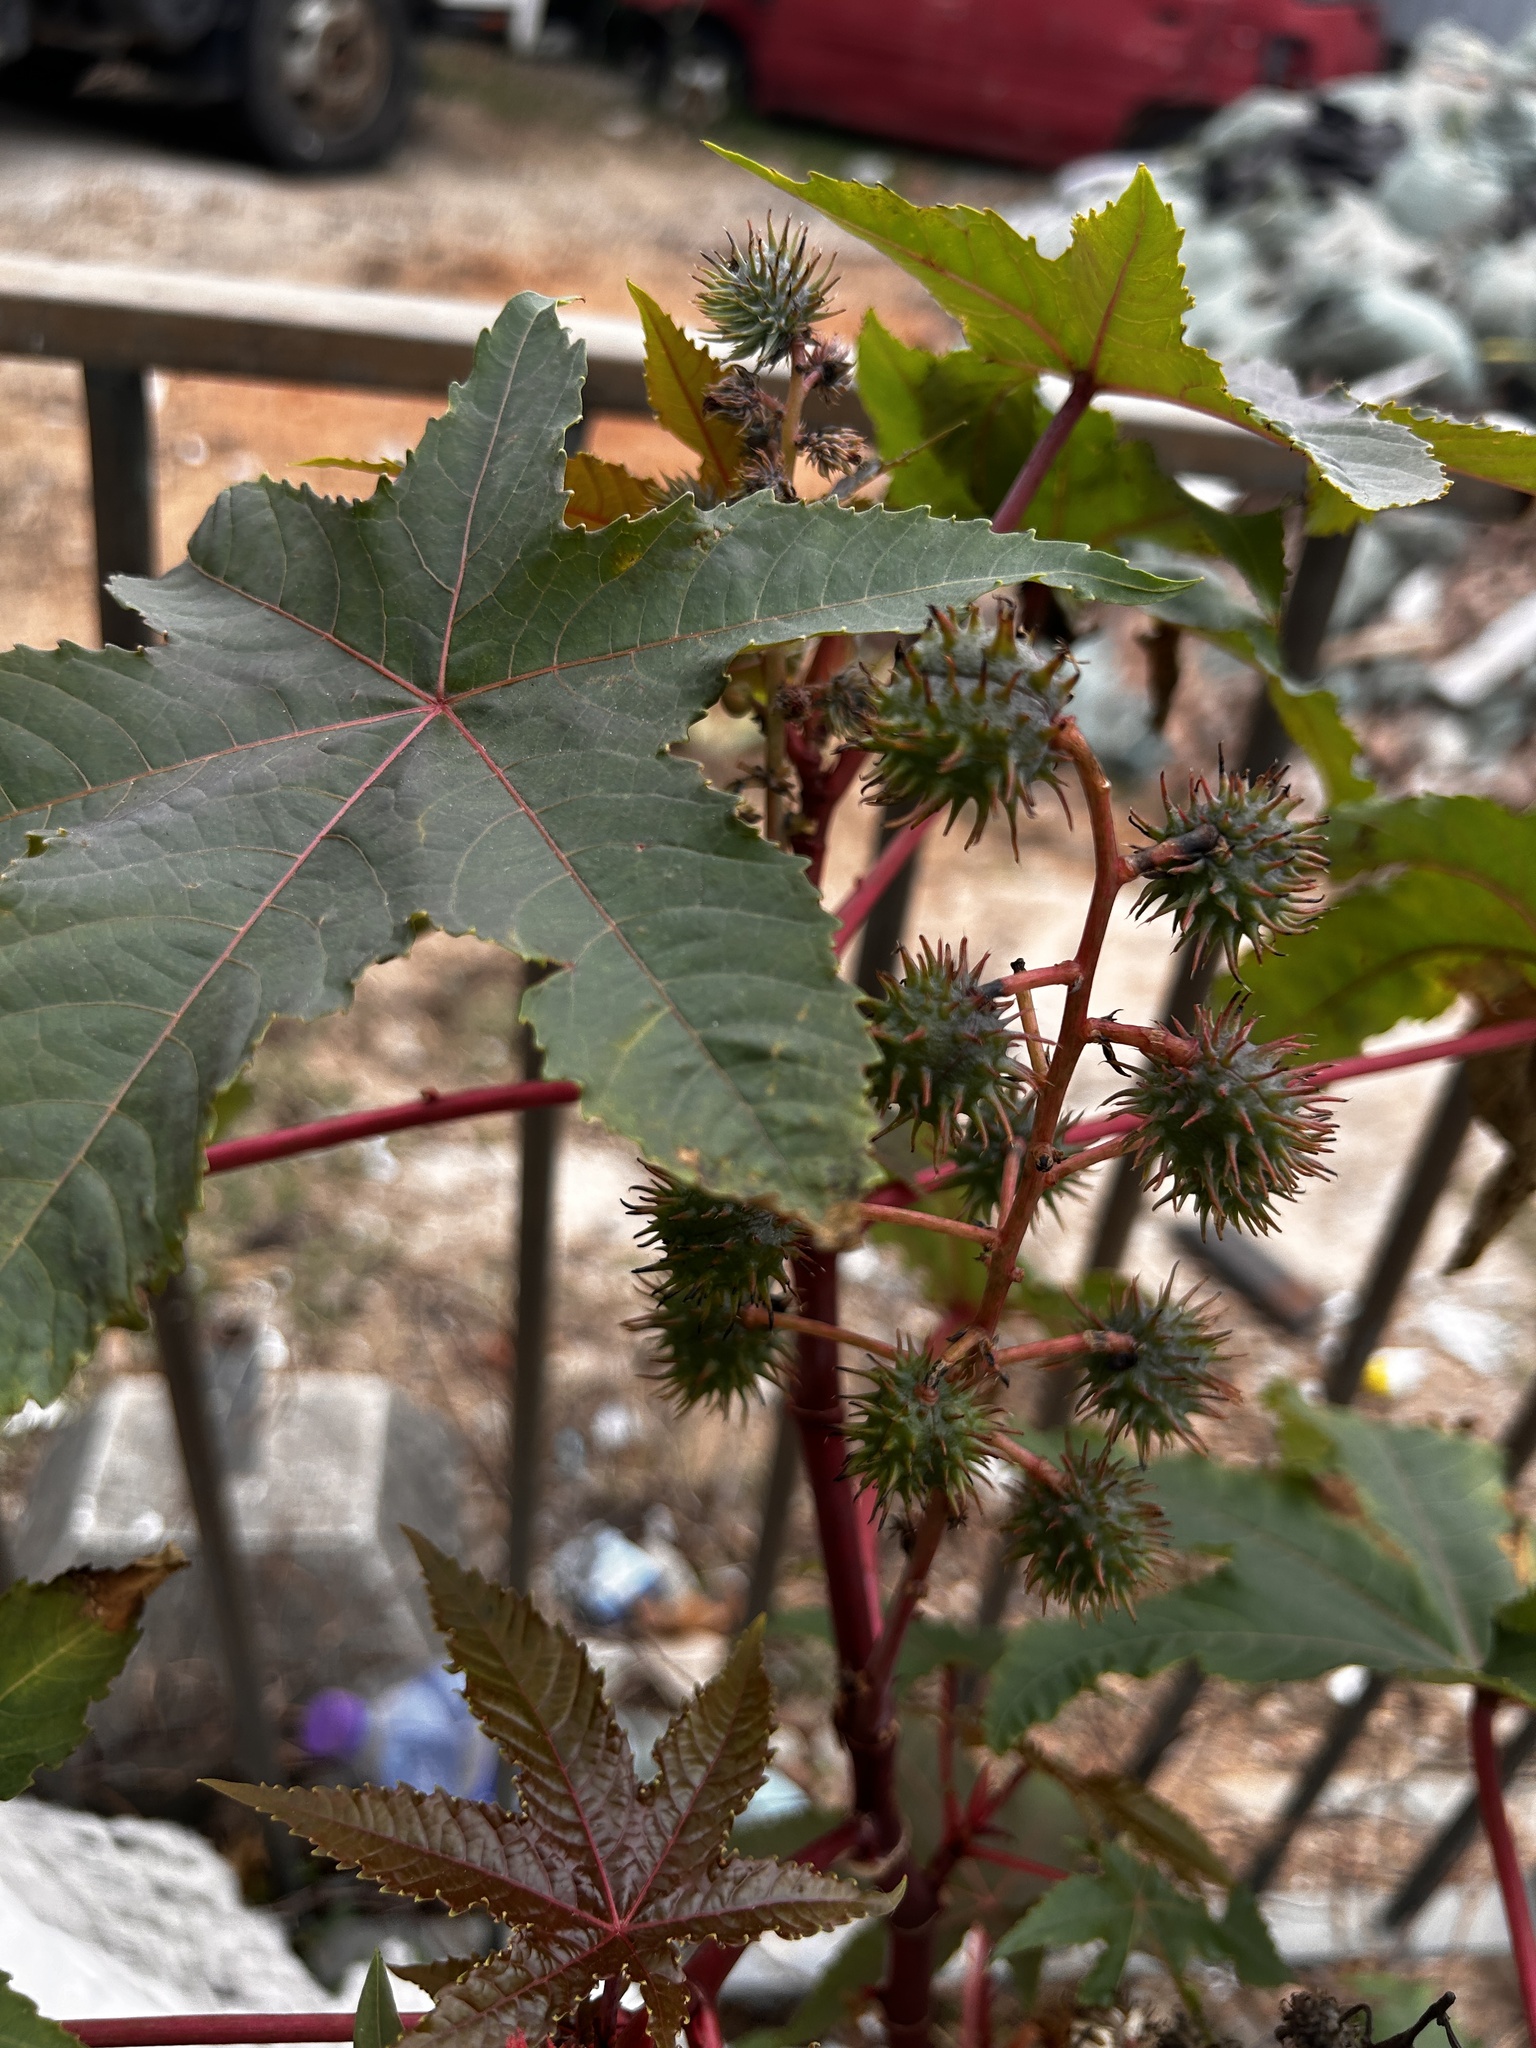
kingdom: Plantae
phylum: Tracheophyta
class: Magnoliopsida
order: Malpighiales
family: Euphorbiaceae
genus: Ricinus
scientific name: Ricinus communis
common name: Castor-oil-plant
